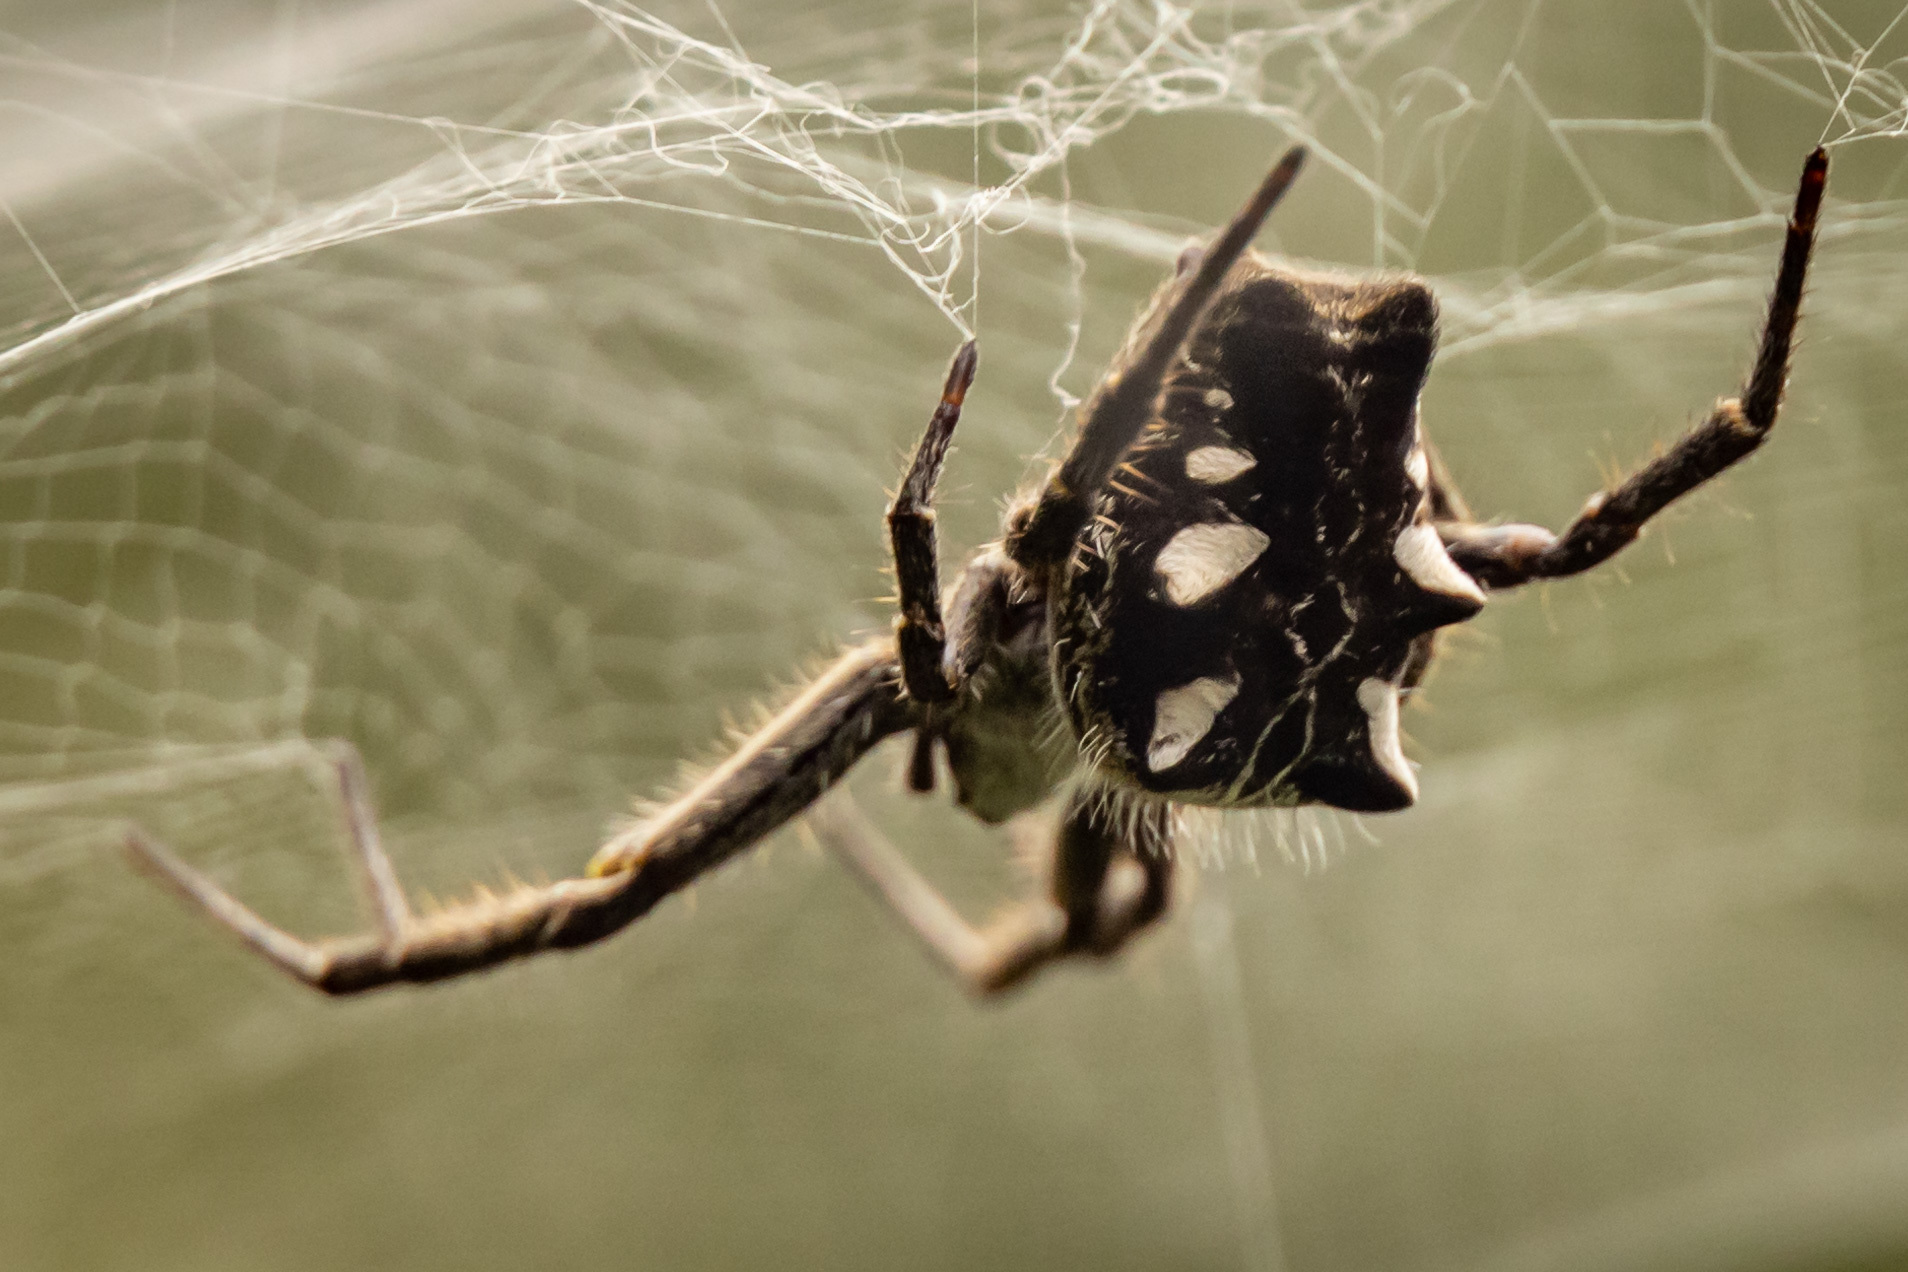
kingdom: Animalia
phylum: Arthropoda
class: Arachnida
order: Araneae
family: Araneidae
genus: Cyrtophora
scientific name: Cyrtophora citricola
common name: Orb weavers
